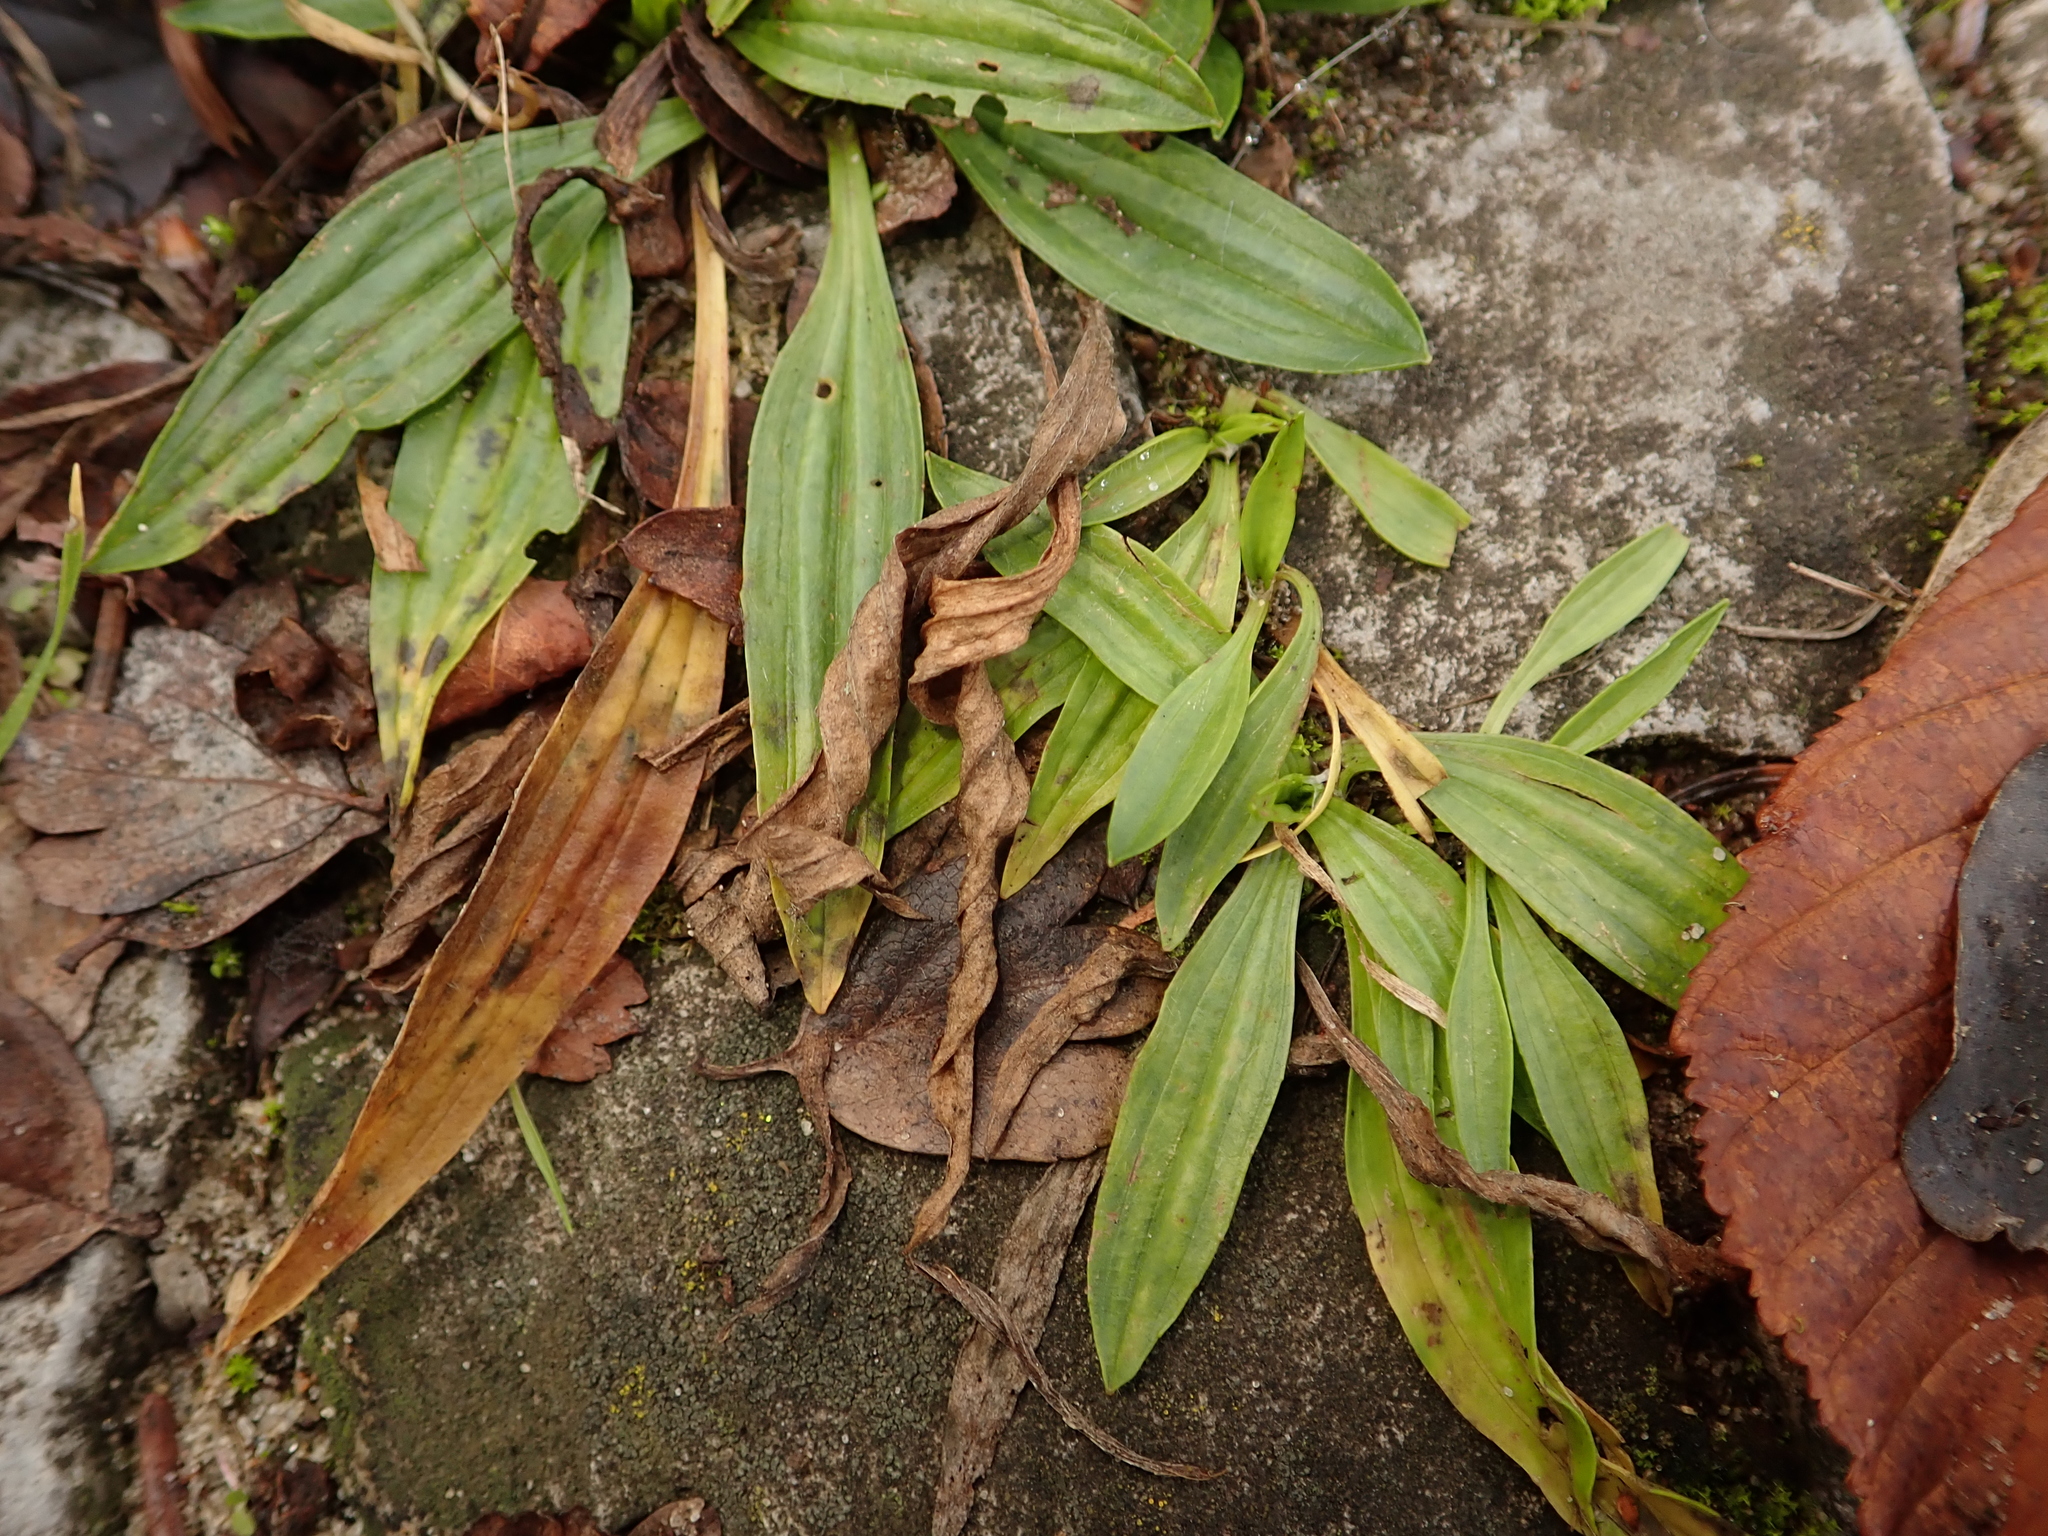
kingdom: Plantae
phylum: Tracheophyta
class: Magnoliopsida
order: Lamiales
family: Plantaginaceae
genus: Plantago
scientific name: Plantago lanceolata
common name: Ribwort plantain
